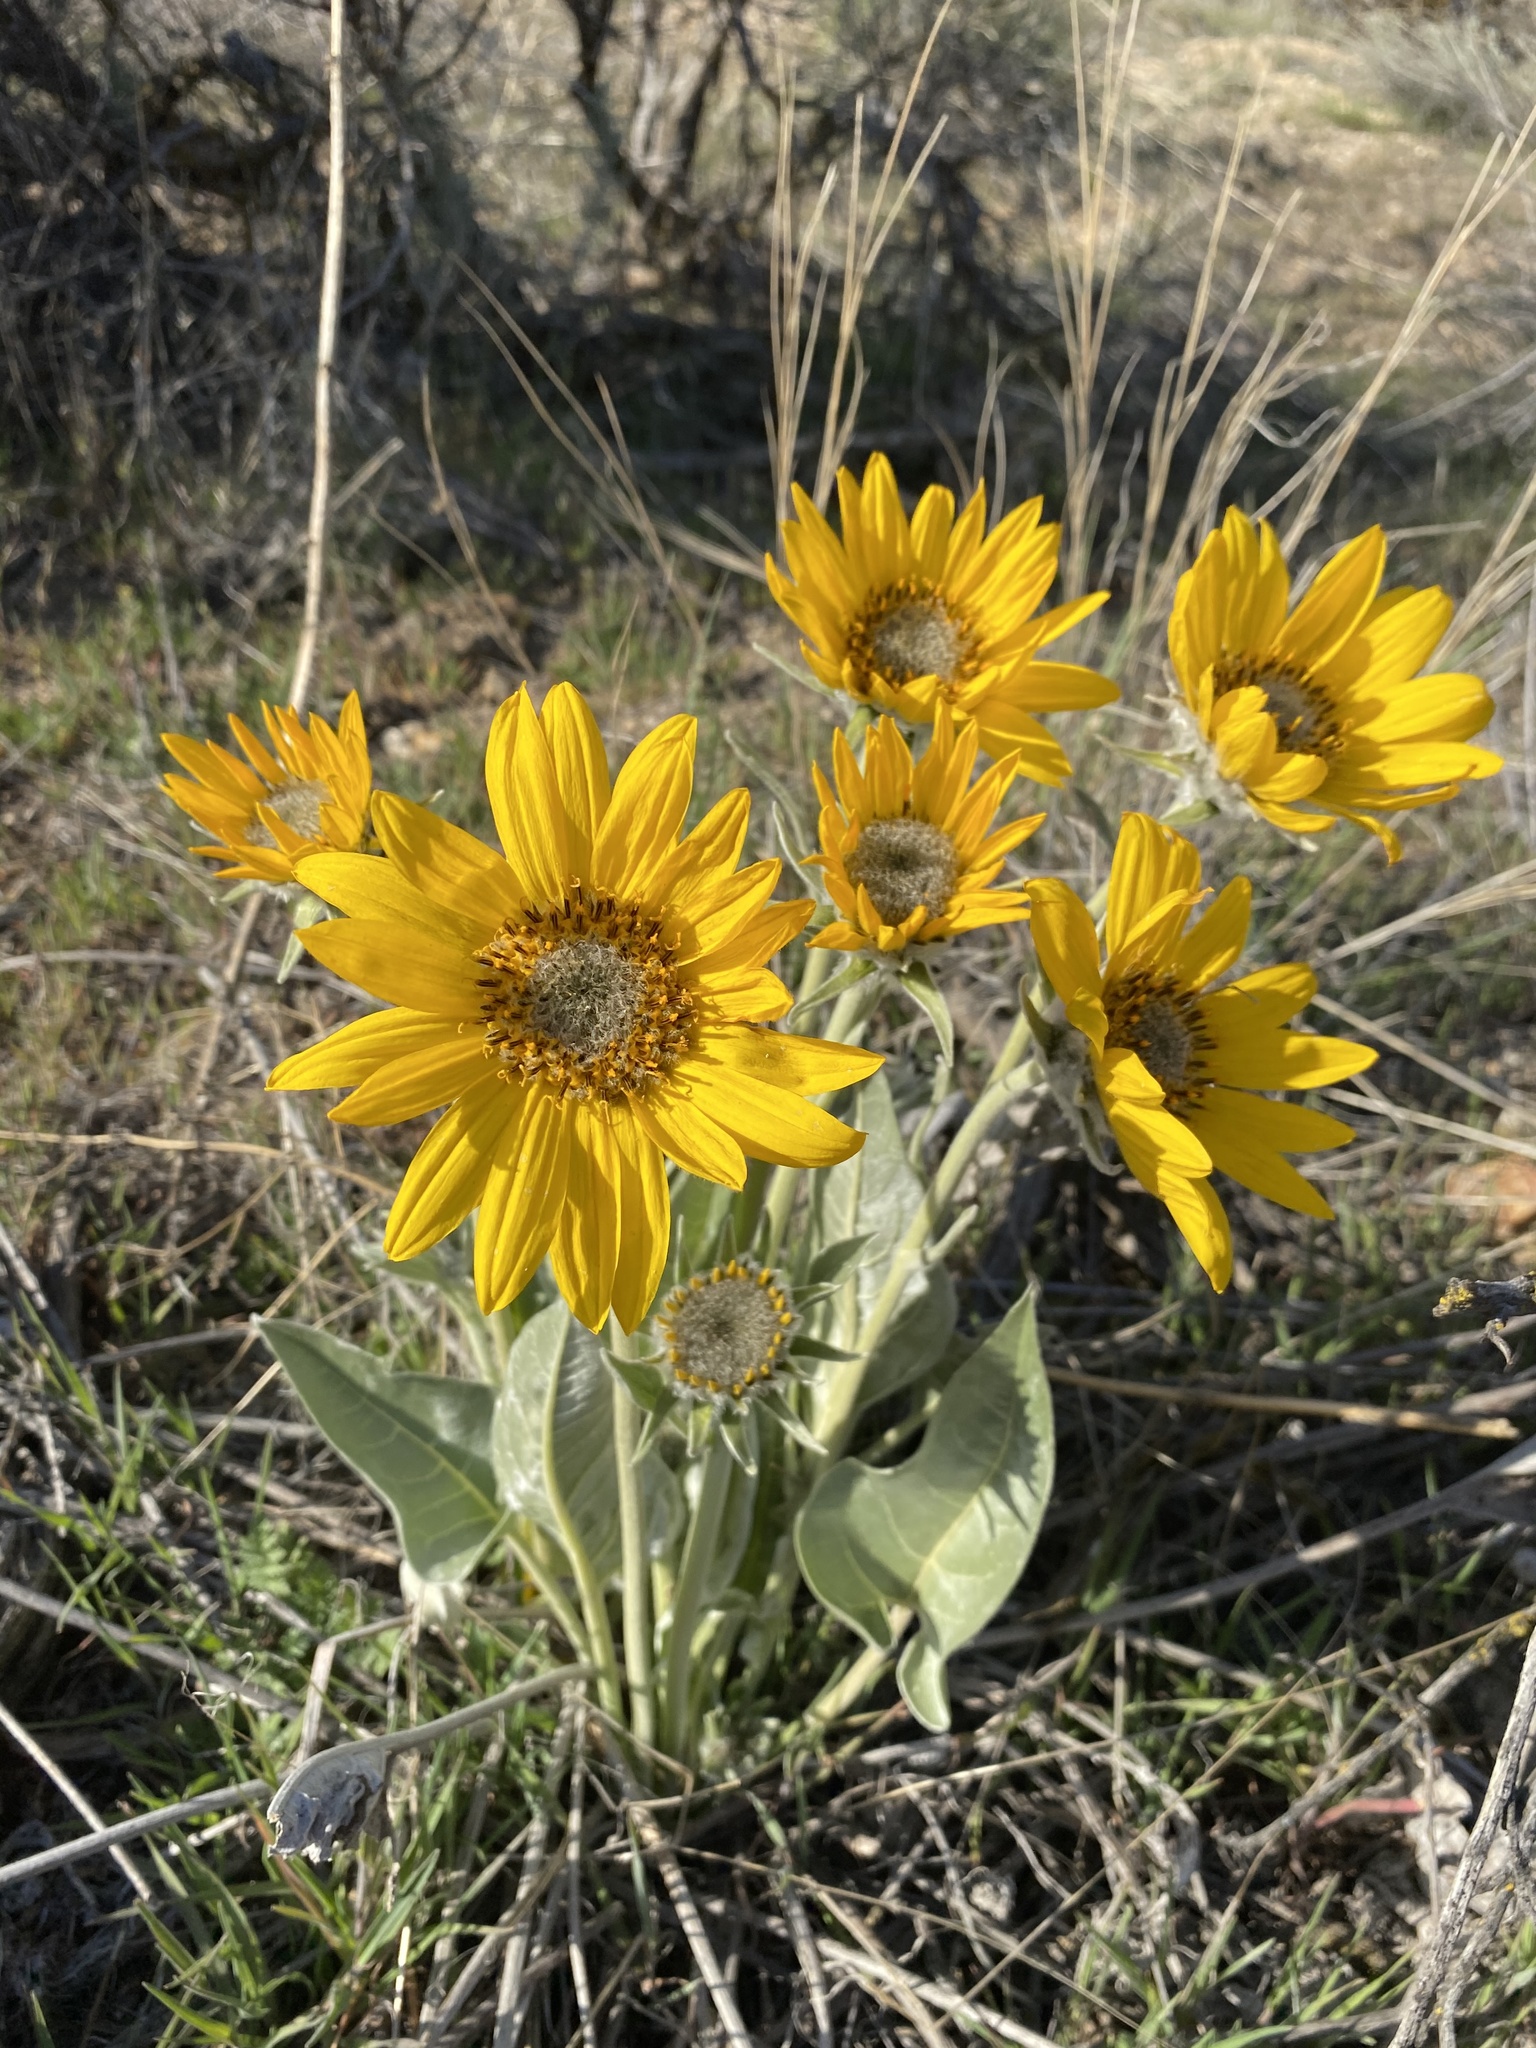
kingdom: Plantae
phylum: Tracheophyta
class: Magnoliopsida
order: Asterales
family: Asteraceae
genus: Wyethia
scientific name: Wyethia sagittata
